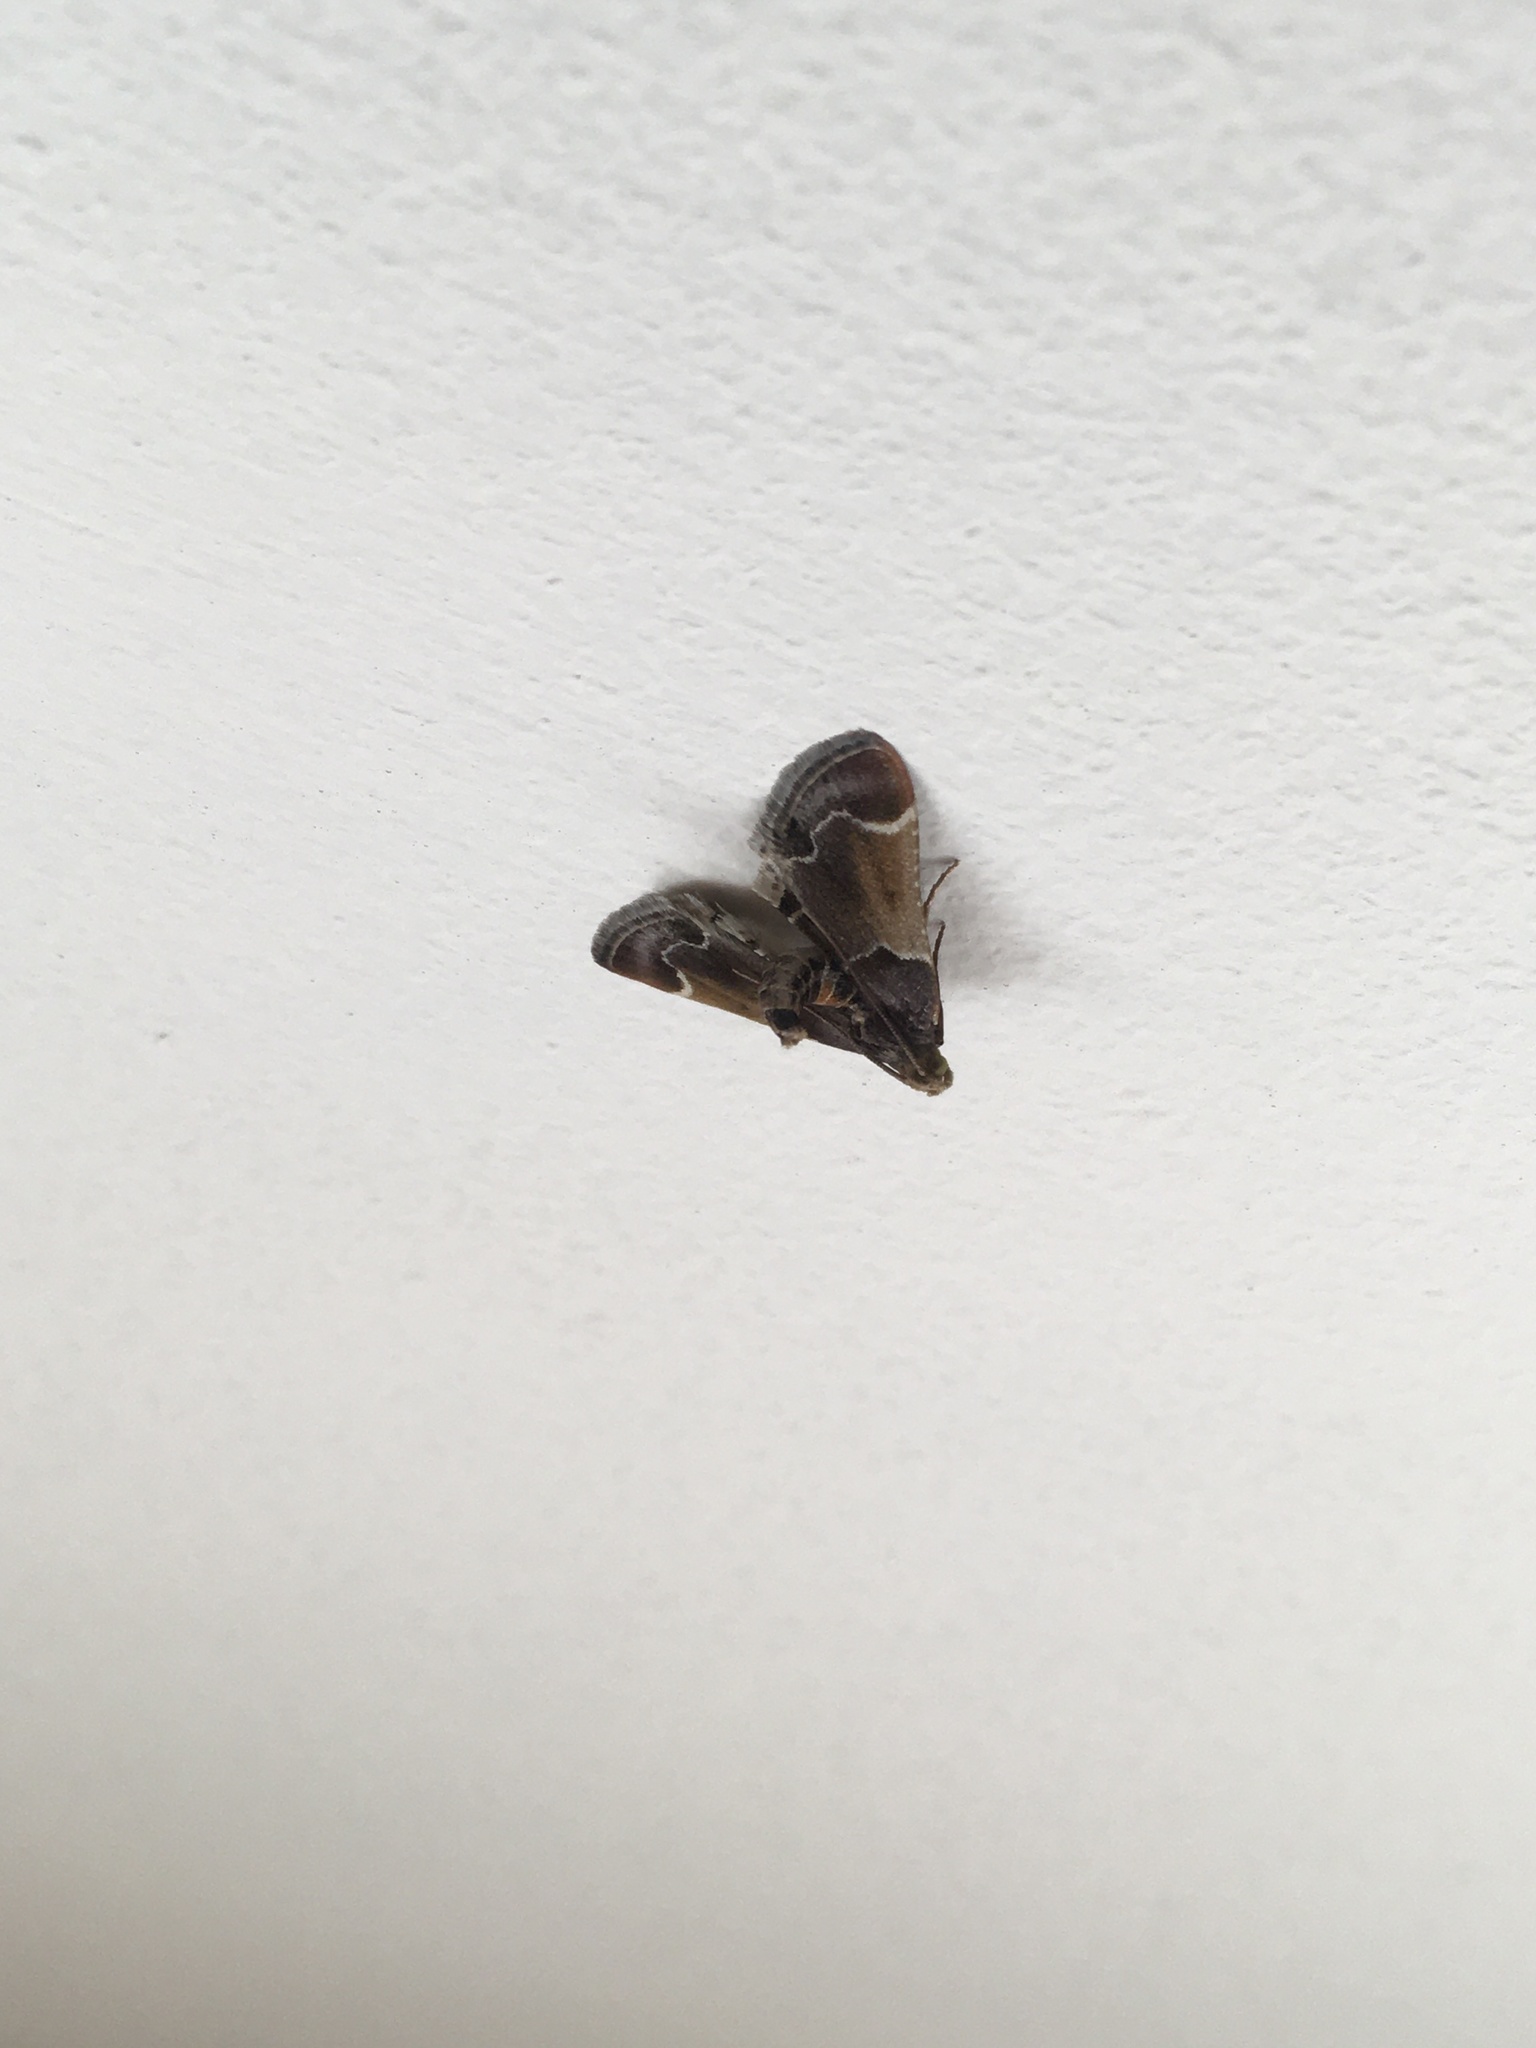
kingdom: Animalia
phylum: Arthropoda
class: Insecta
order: Lepidoptera
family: Pyralidae
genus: Pyralis
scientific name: Pyralis farinalis
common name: Meal moth
